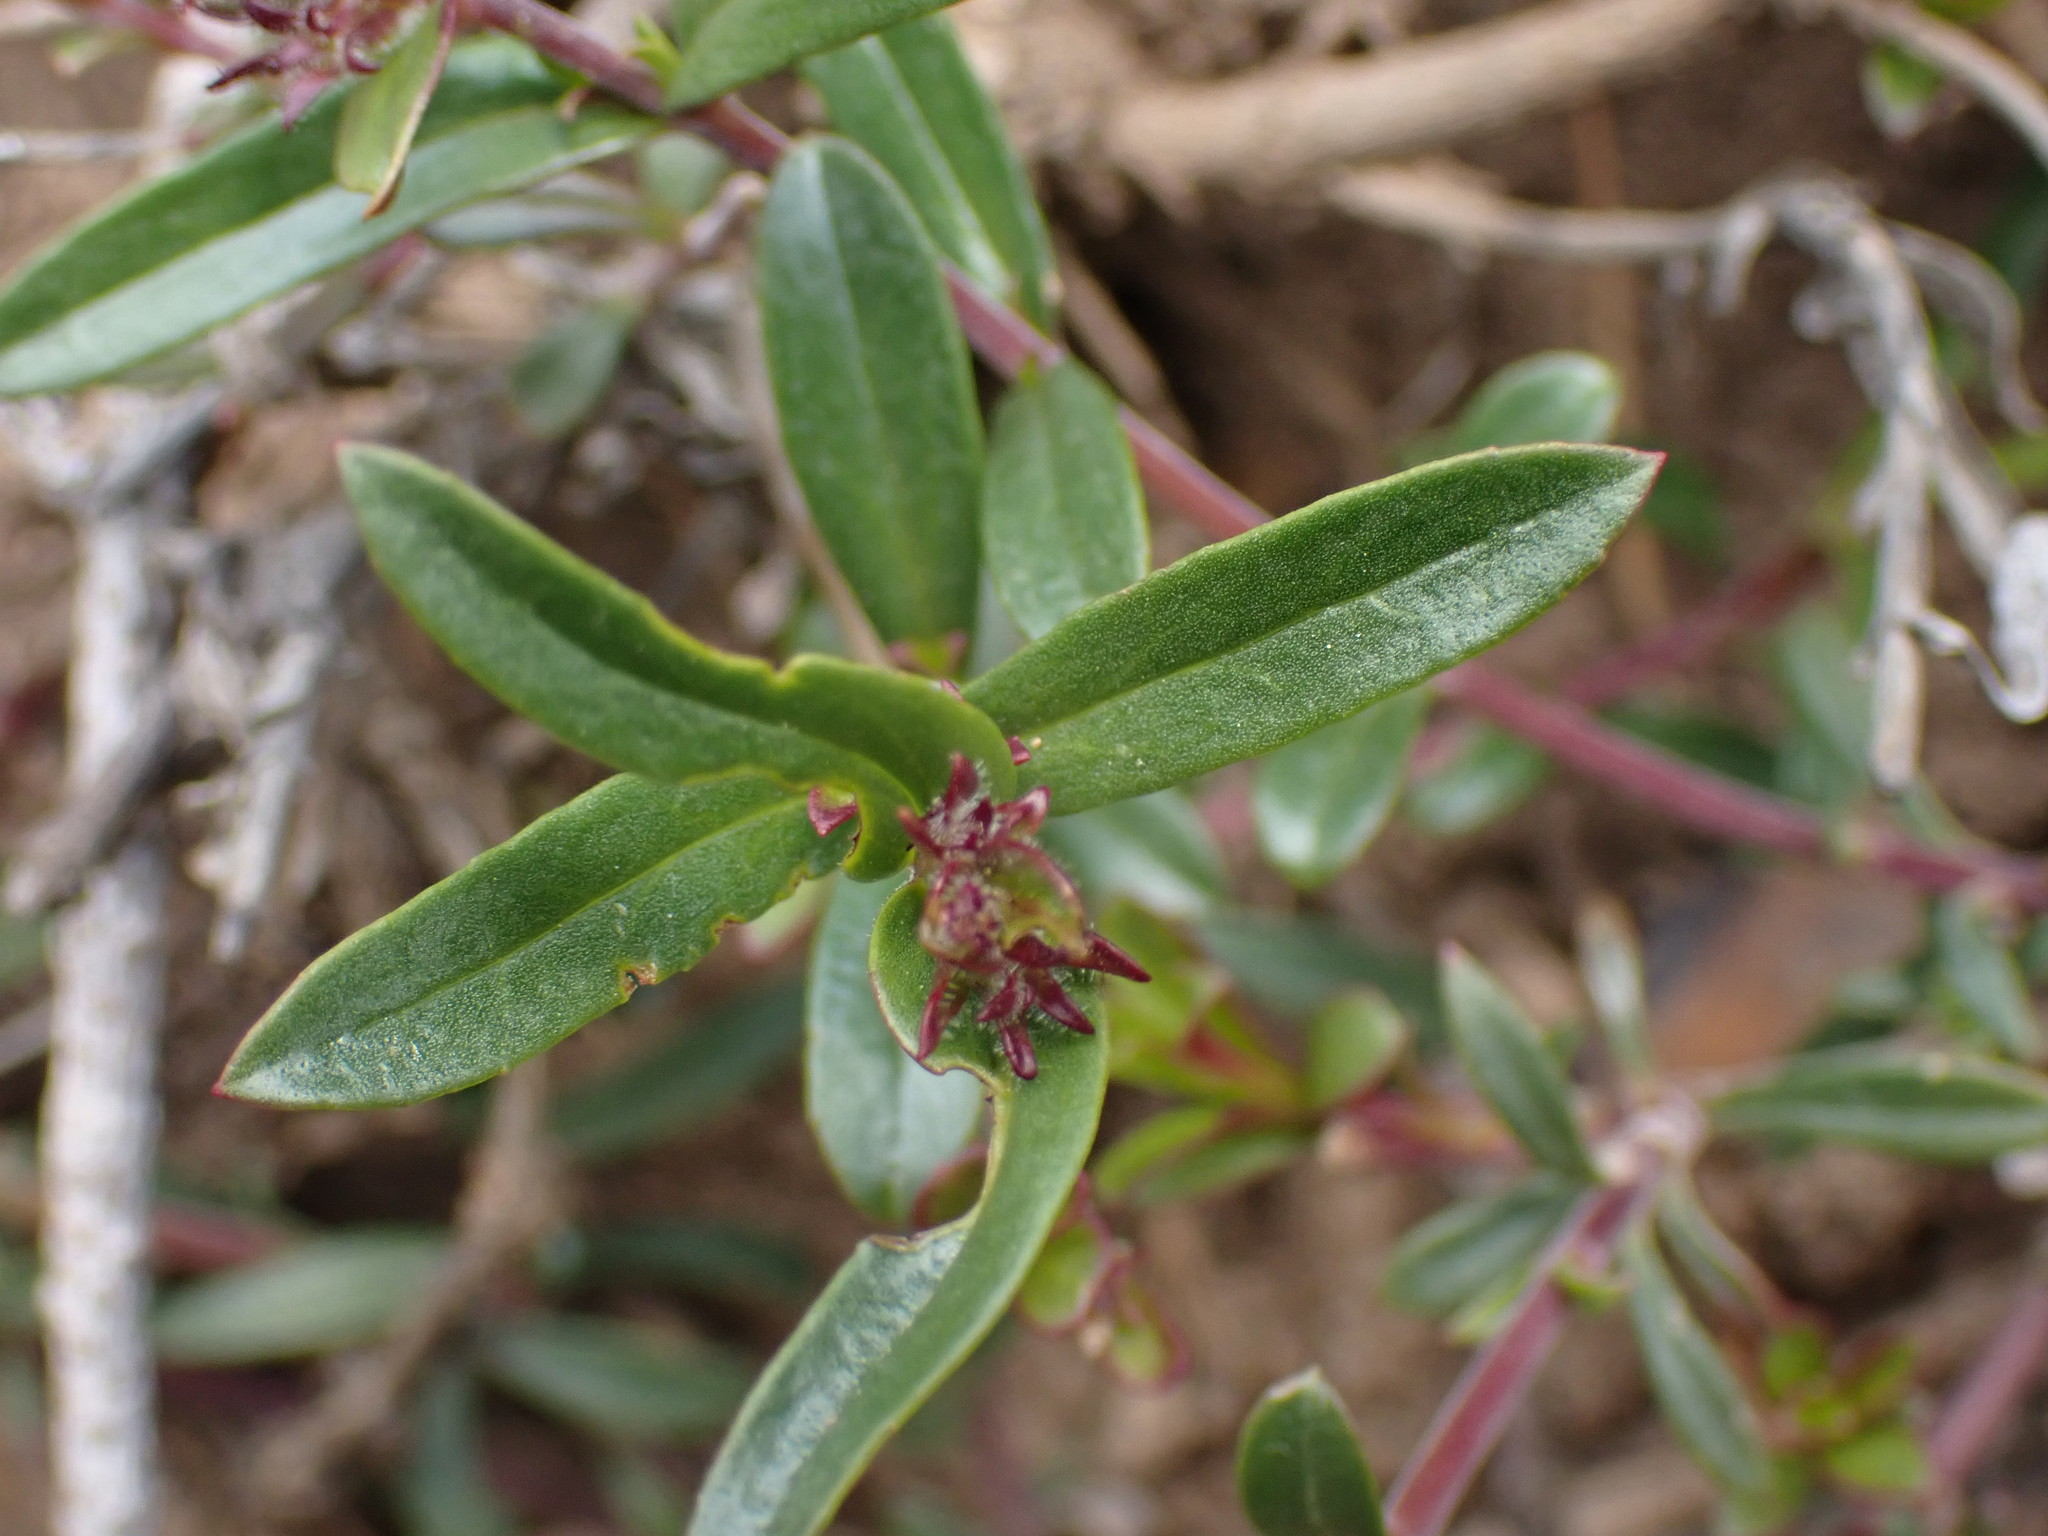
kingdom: Plantae
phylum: Tracheophyta
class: Magnoliopsida
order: Lamiales
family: Plantaginaceae
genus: Penstemon
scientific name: Penstemon fruticosus
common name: Bush penstemon
